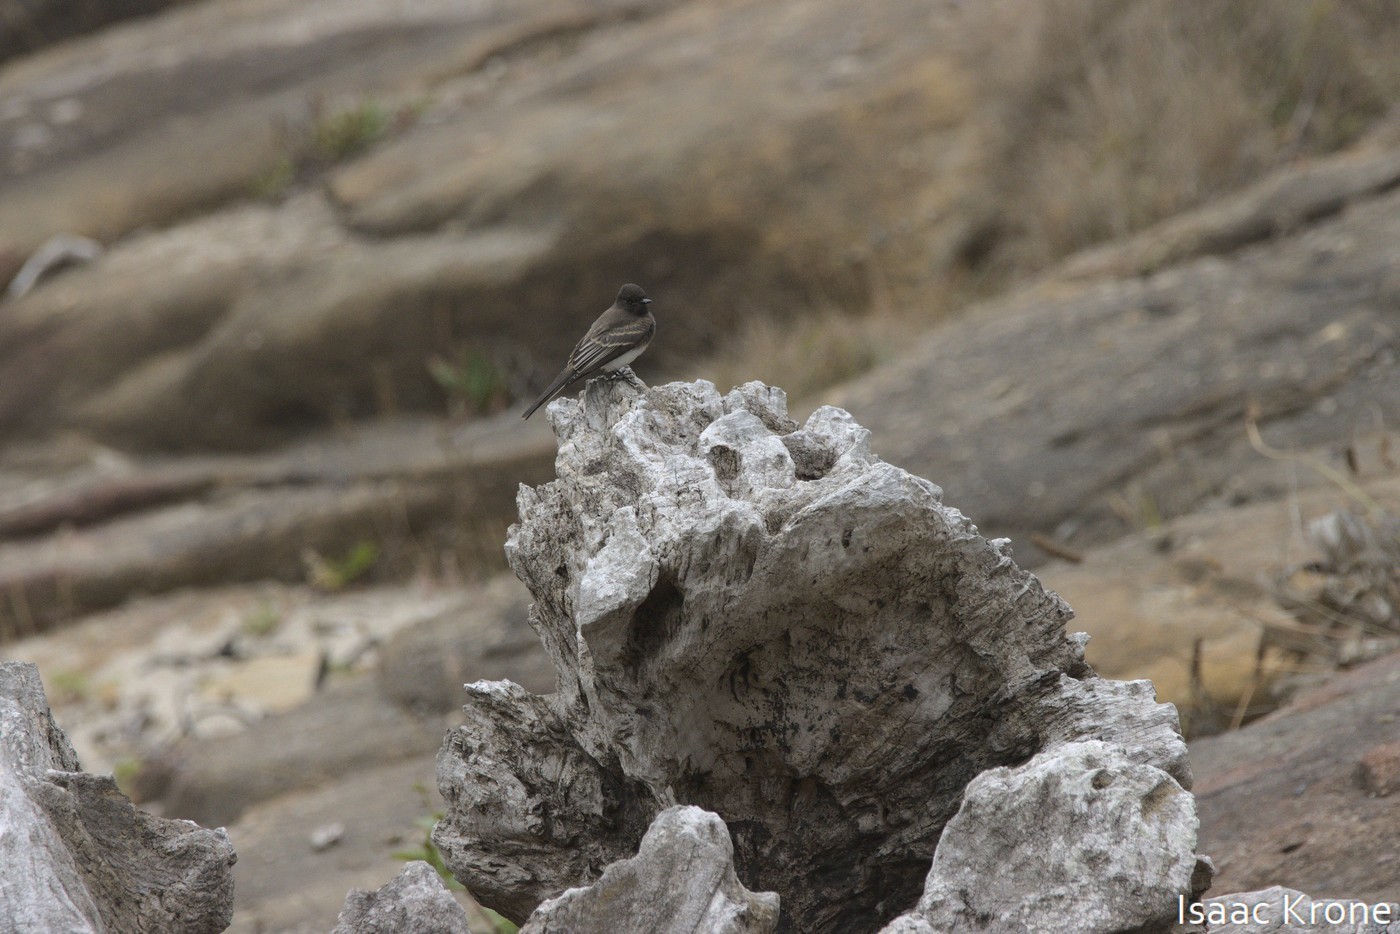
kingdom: Animalia
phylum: Chordata
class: Aves
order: Passeriformes
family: Tyrannidae
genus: Sayornis
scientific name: Sayornis nigricans
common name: Black phoebe
